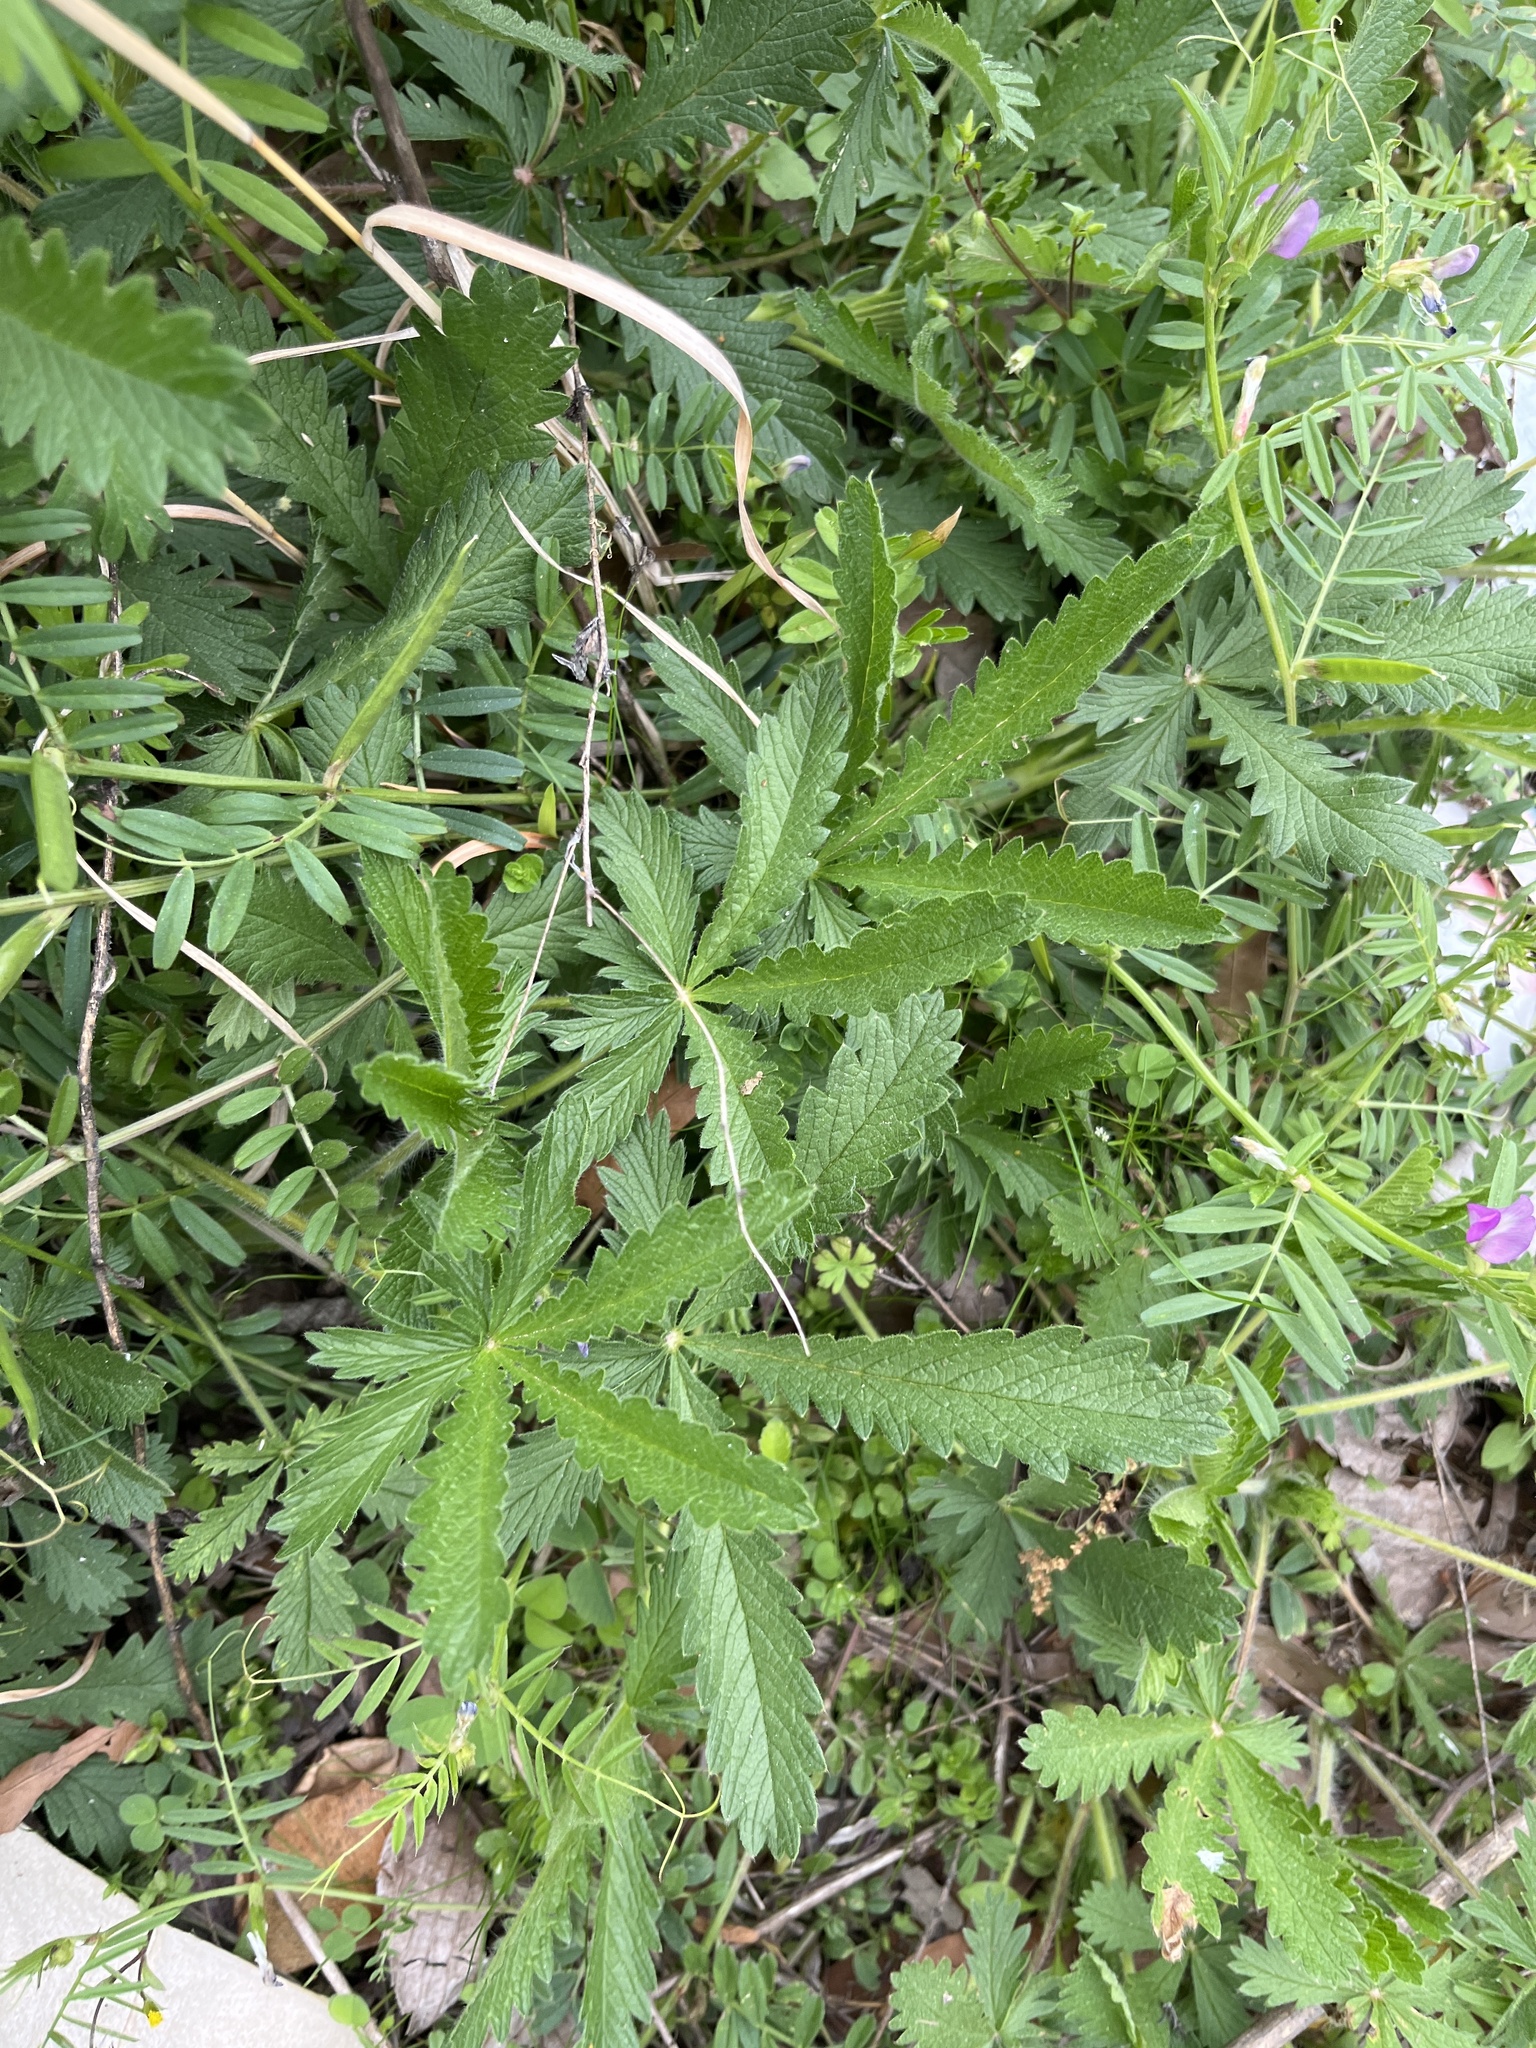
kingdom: Plantae
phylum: Tracheophyta
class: Magnoliopsida
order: Rosales
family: Rosaceae
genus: Potentilla
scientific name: Potentilla recta
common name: Sulphur cinquefoil
